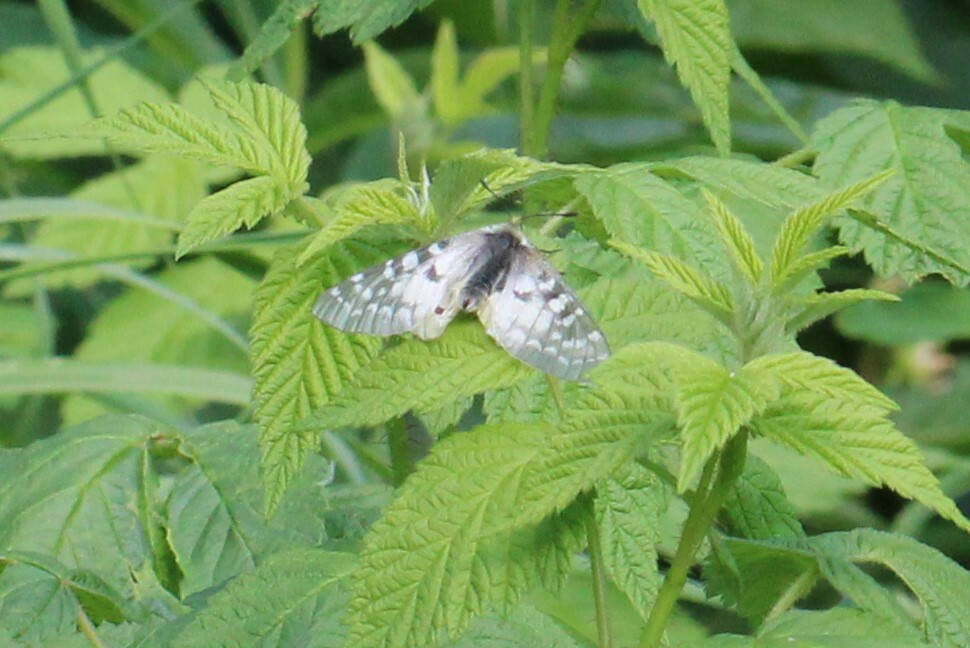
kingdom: Animalia
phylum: Arthropoda
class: Insecta
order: Lepidoptera
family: Papilionidae
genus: Parnassius
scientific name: Parnassius clodius
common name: American apollo
